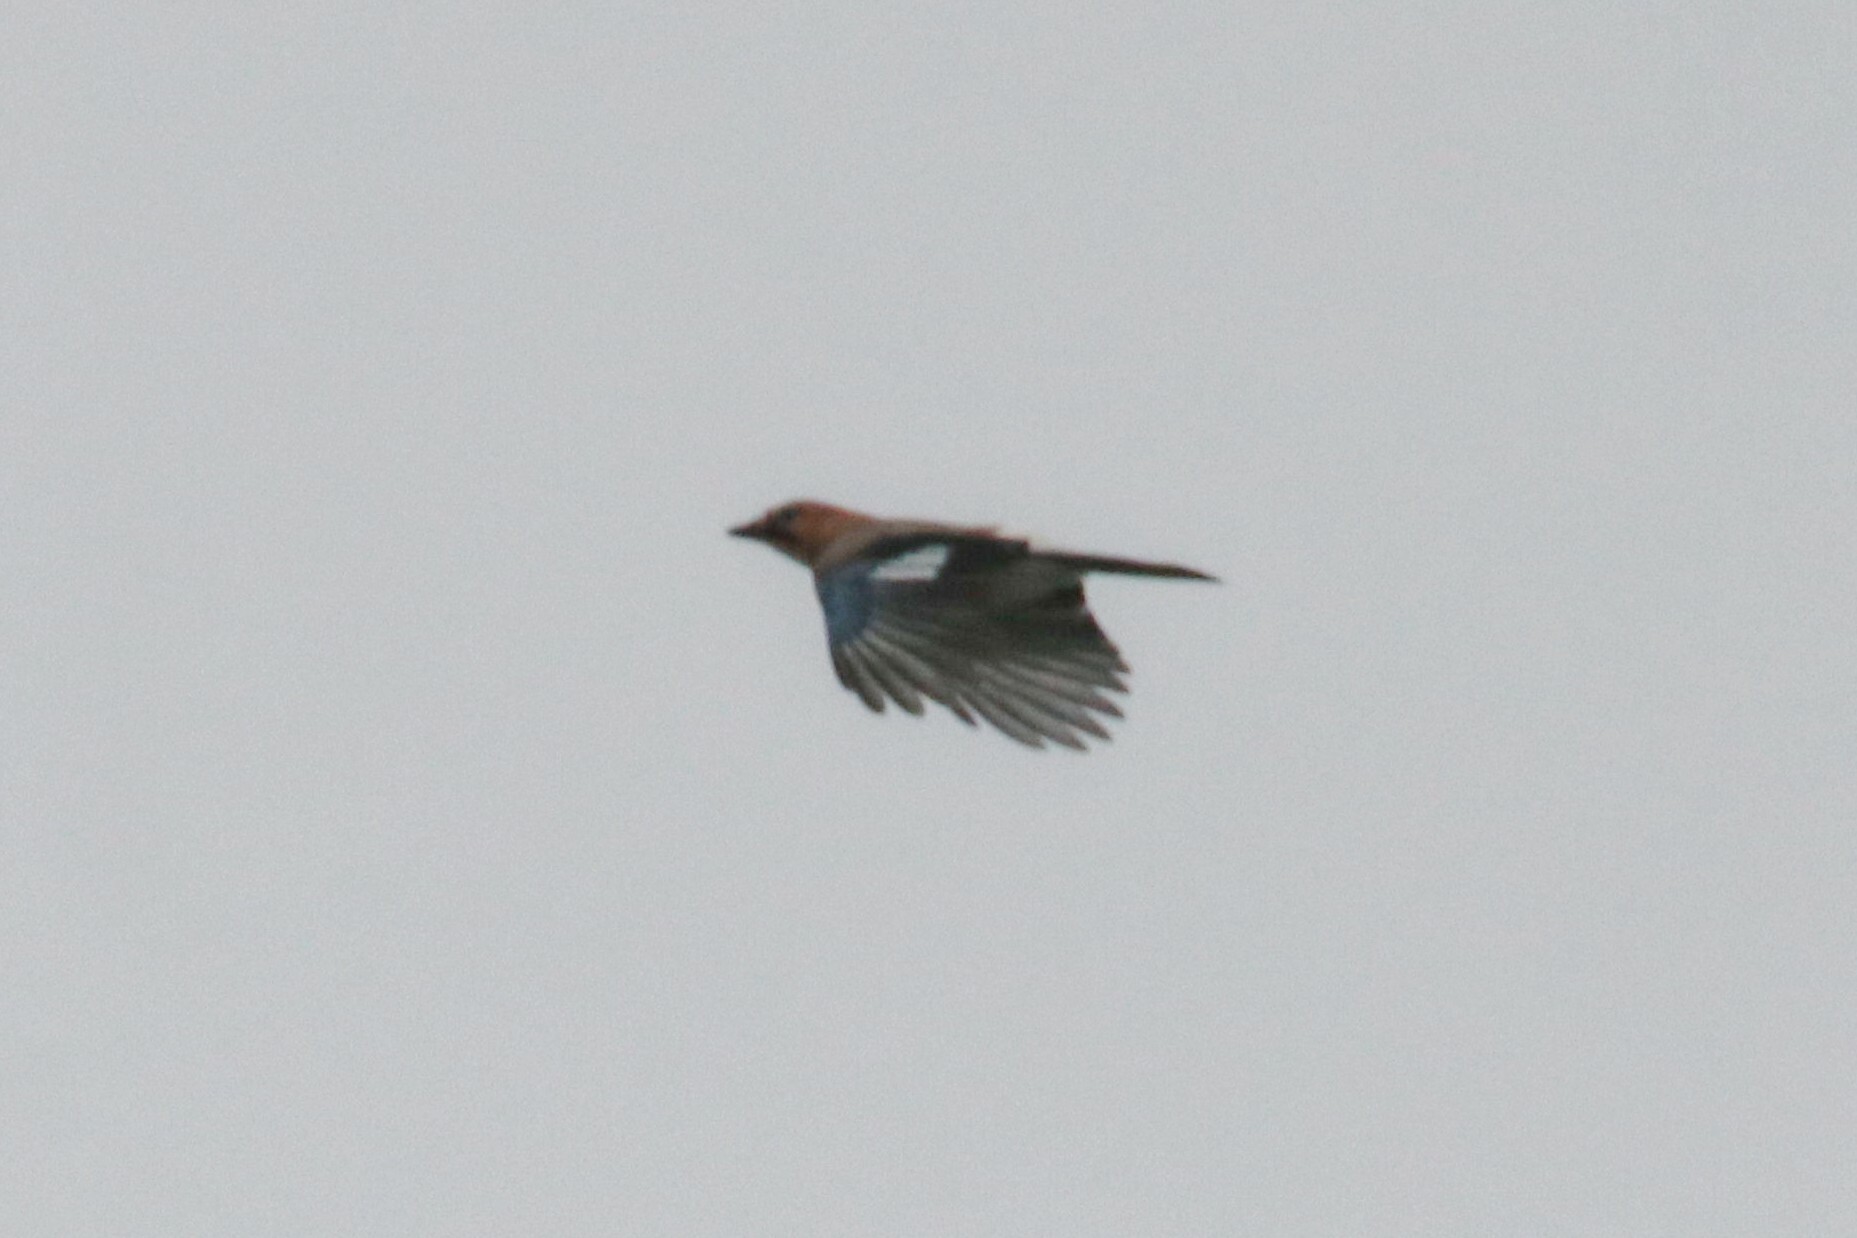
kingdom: Animalia
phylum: Chordata
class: Aves
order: Passeriformes
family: Corvidae
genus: Garrulus
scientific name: Garrulus glandarius
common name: Eurasian jay
